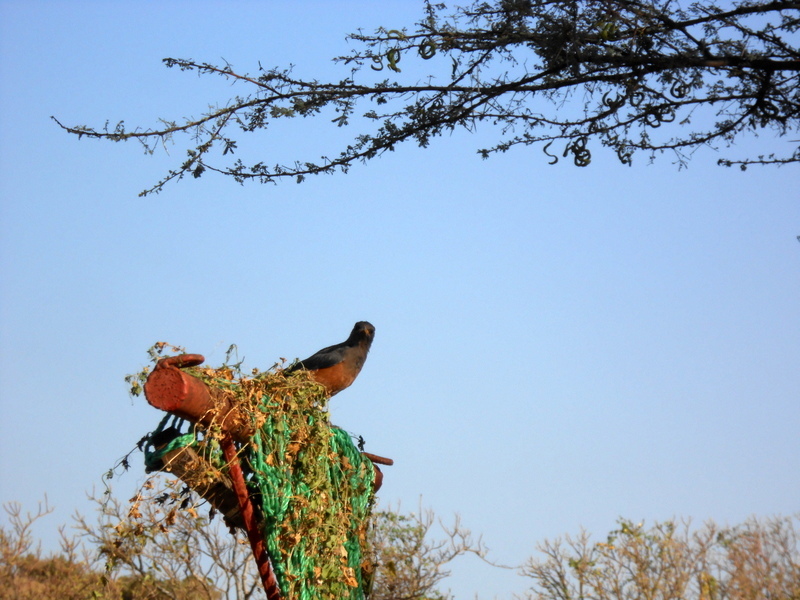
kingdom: Animalia
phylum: Chordata
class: Aves
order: Passeriformes
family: Sturnidae
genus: Lamprotornis
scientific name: Lamprotornis pulcher
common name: Chestnut-bellied starling
